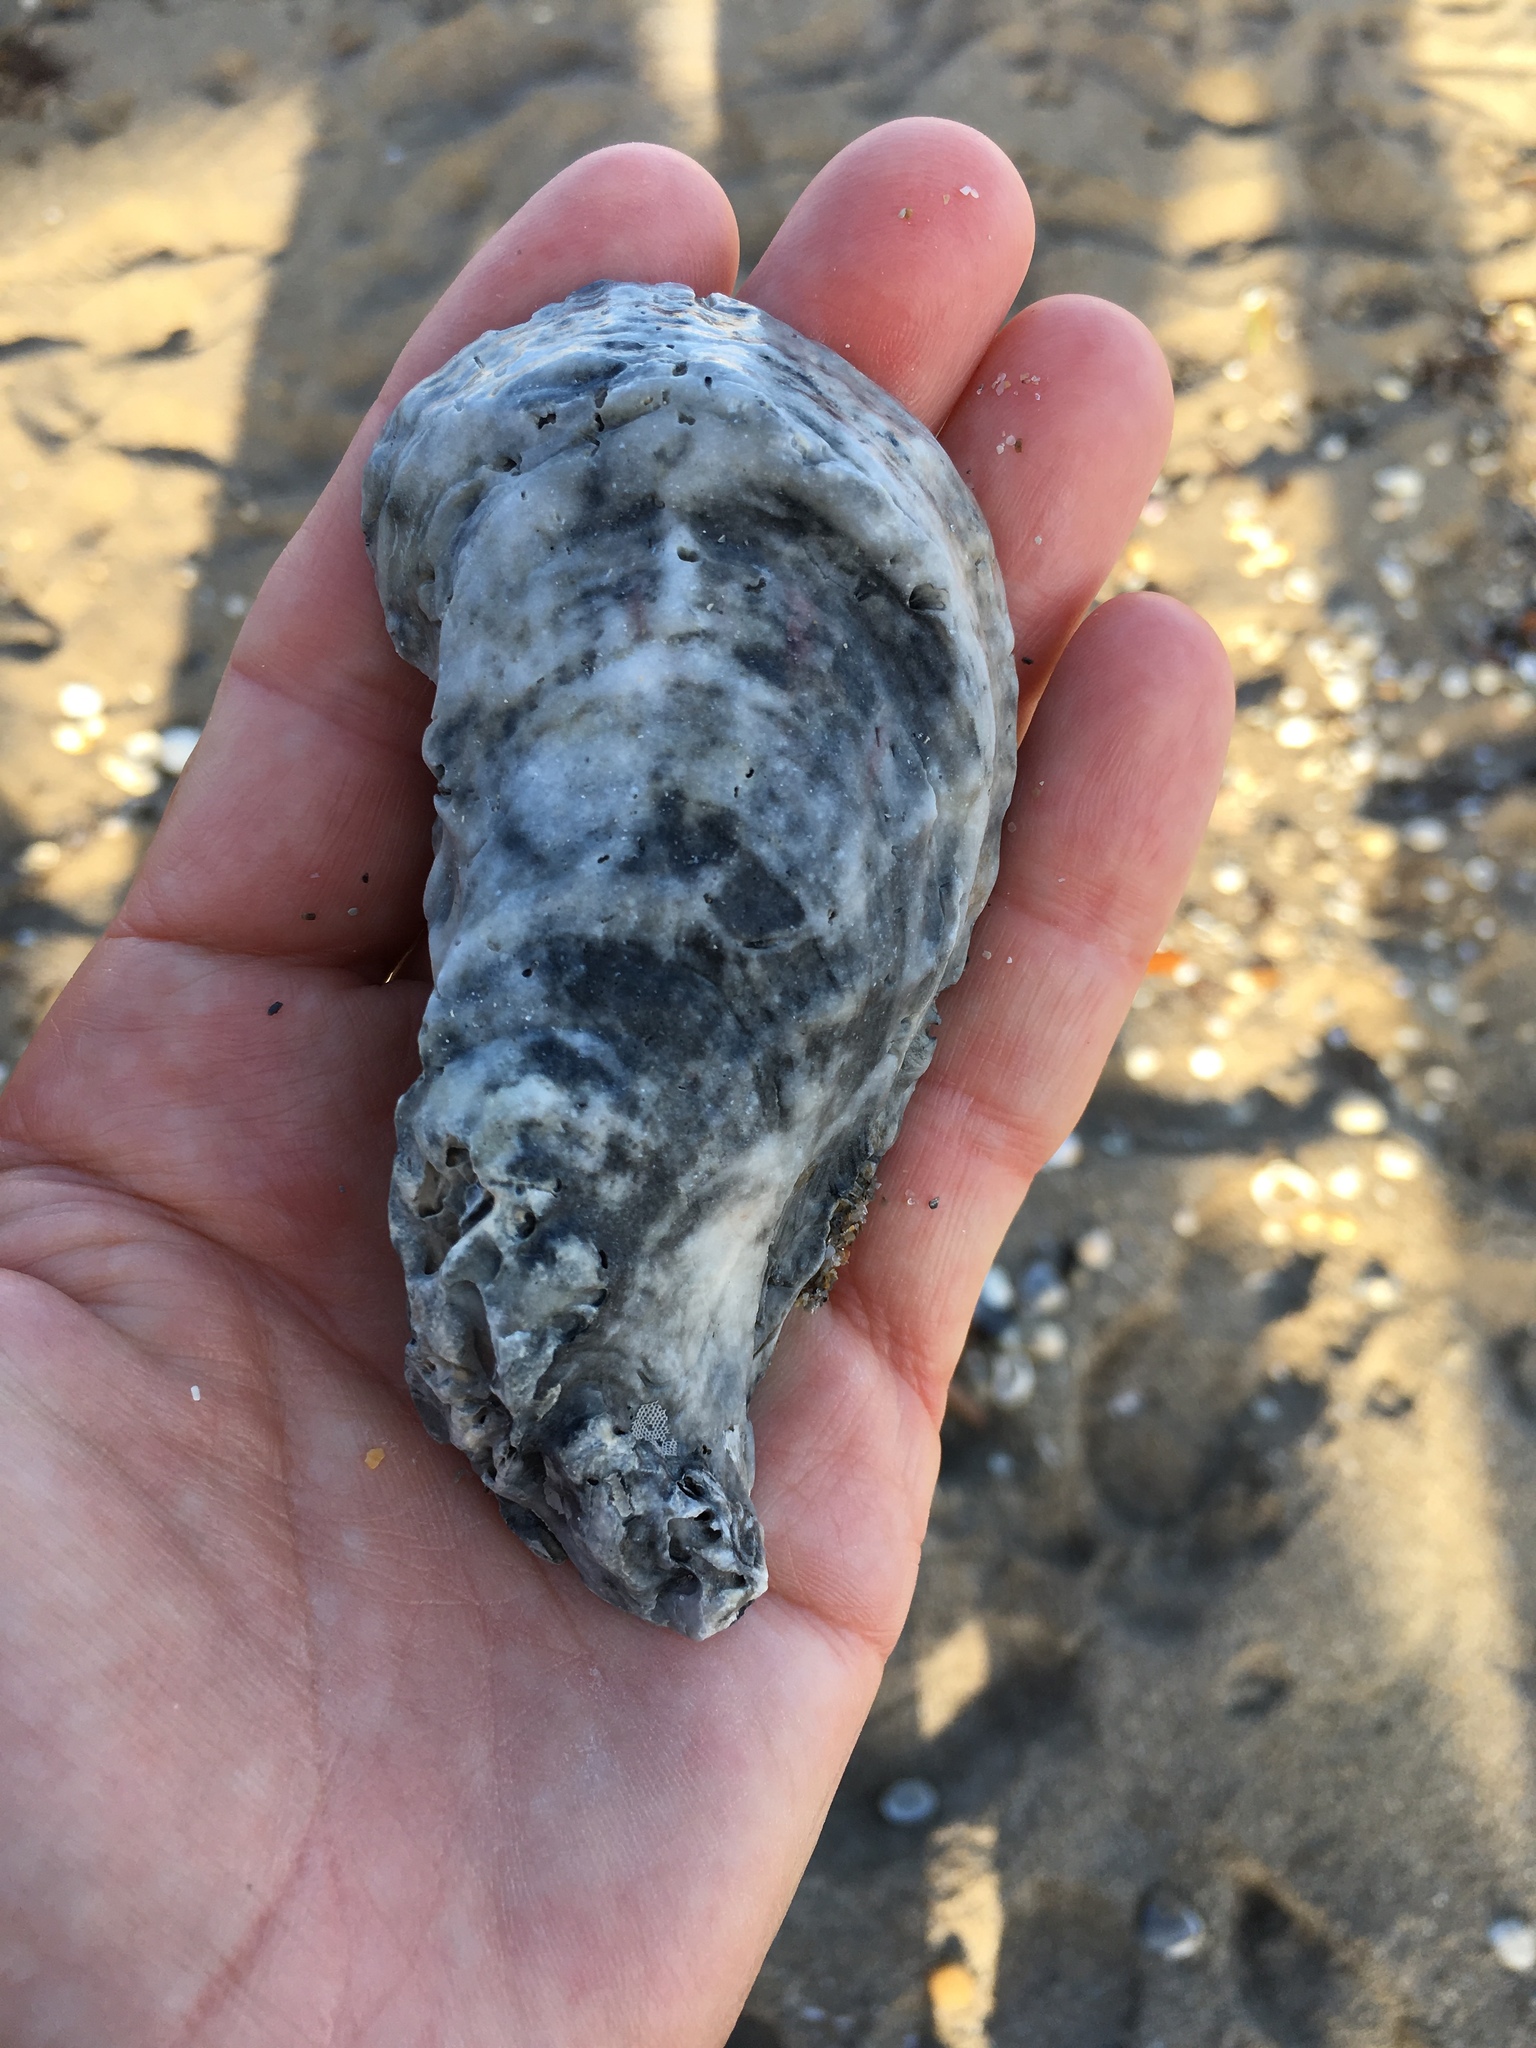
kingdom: Animalia
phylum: Mollusca
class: Bivalvia
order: Ostreida
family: Ostreidae
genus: Crassostrea
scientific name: Crassostrea virginica
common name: American oyster
